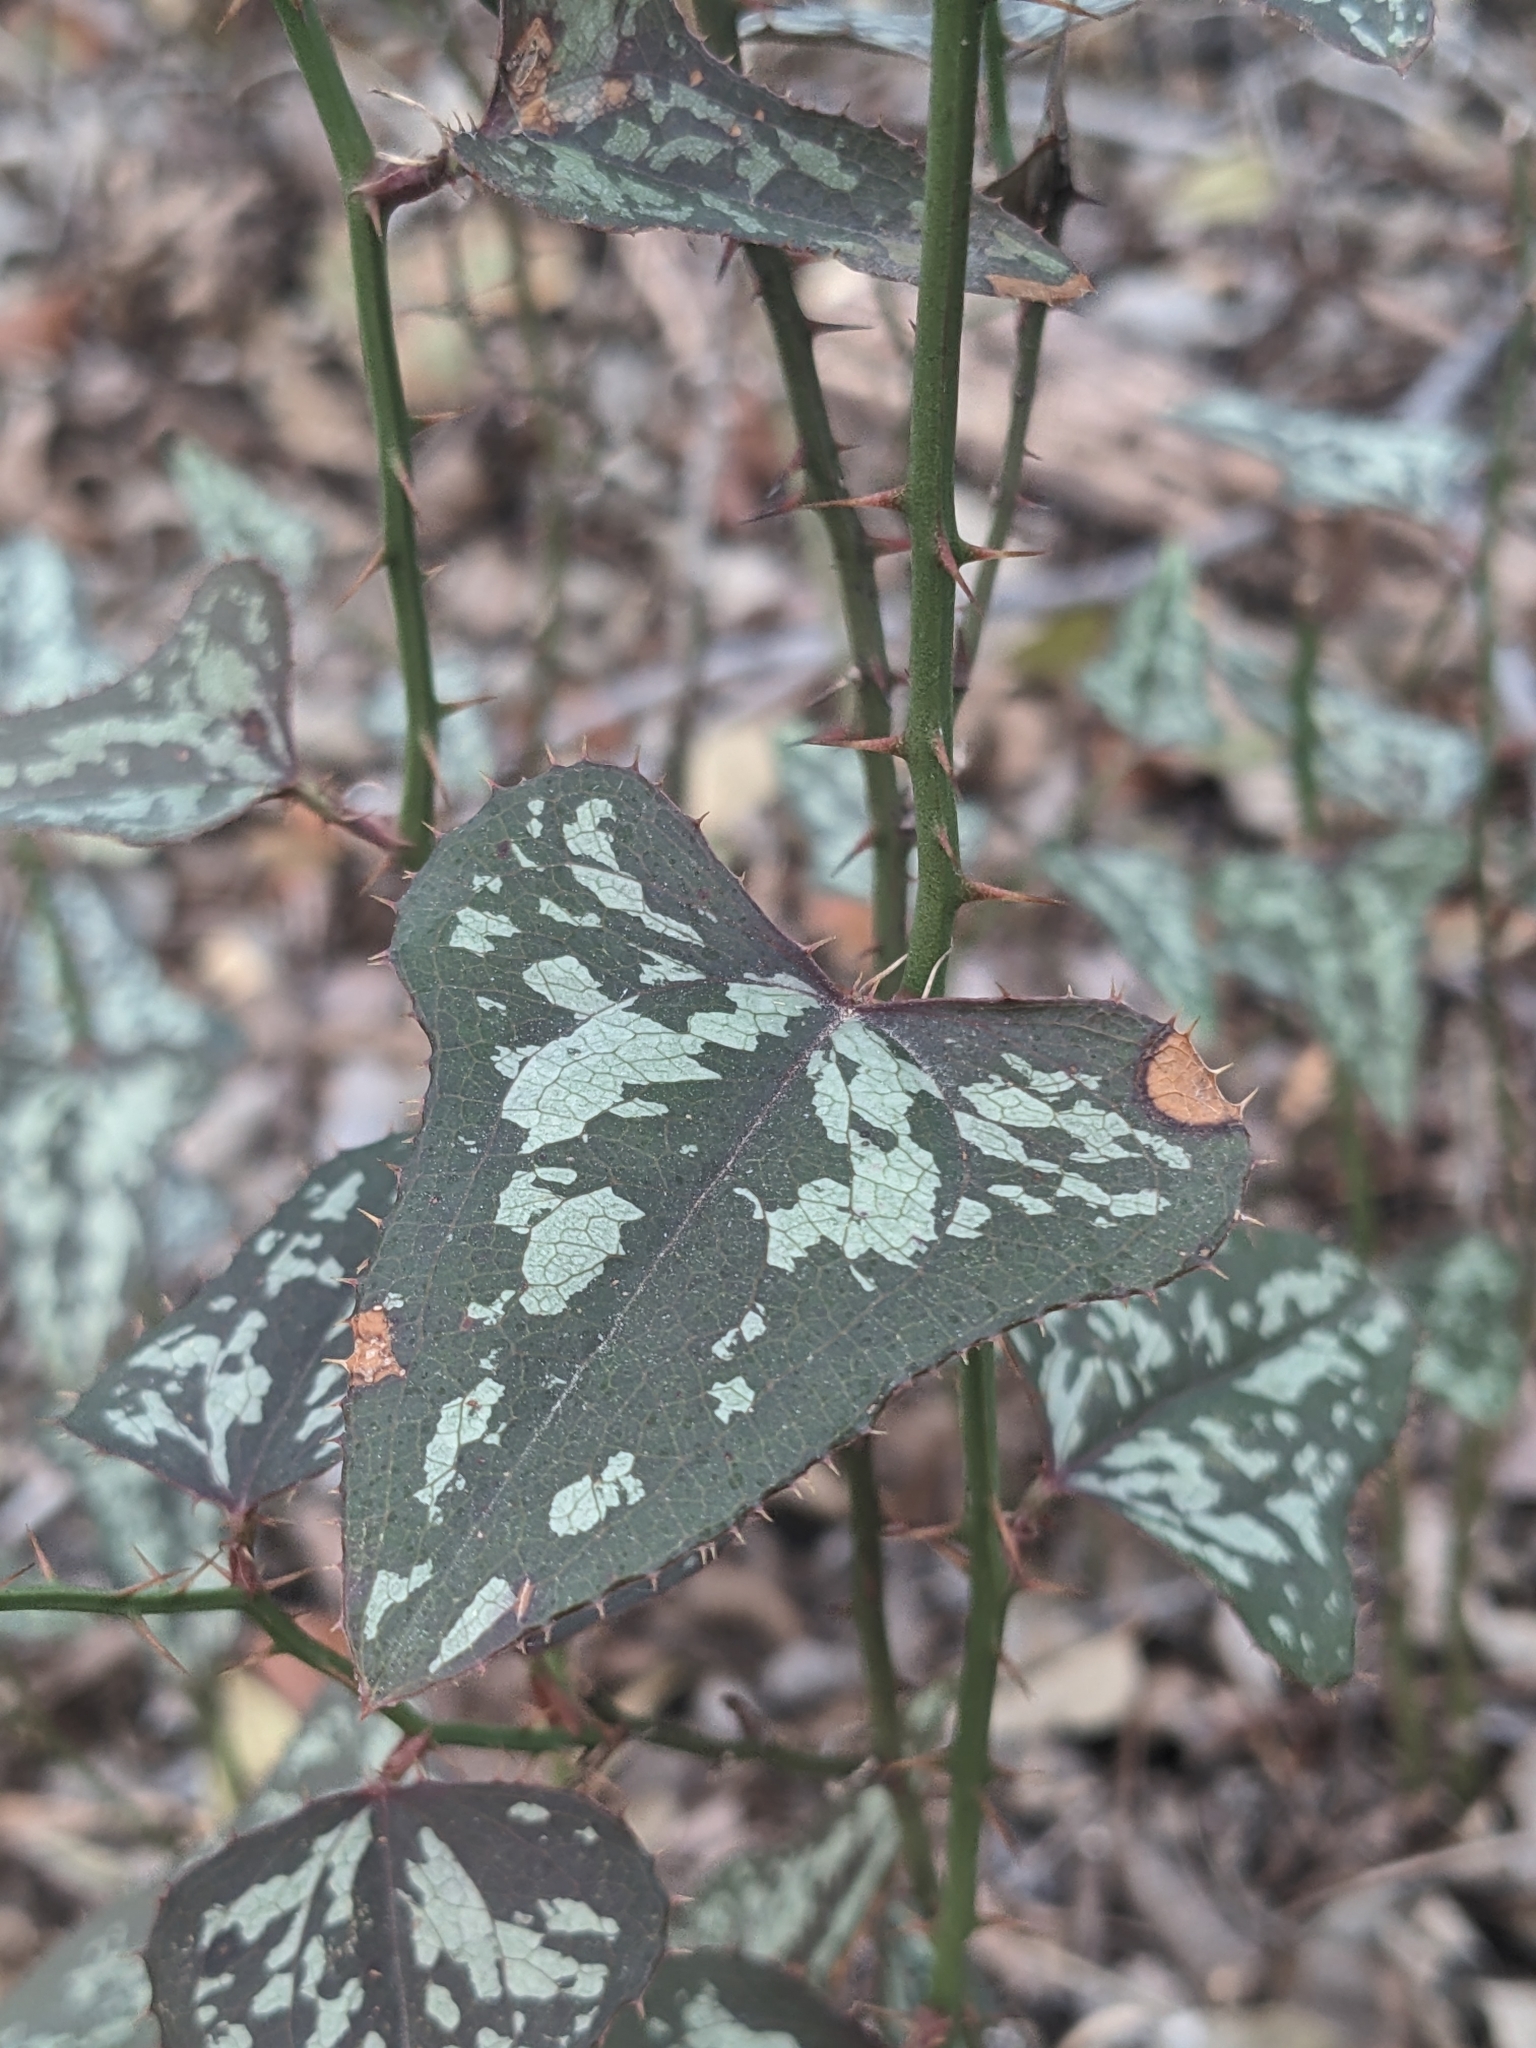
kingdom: Plantae
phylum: Tracheophyta
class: Liliopsida
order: Liliales
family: Smilacaceae
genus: Smilax
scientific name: Smilax bona-nox
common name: Catbrier
